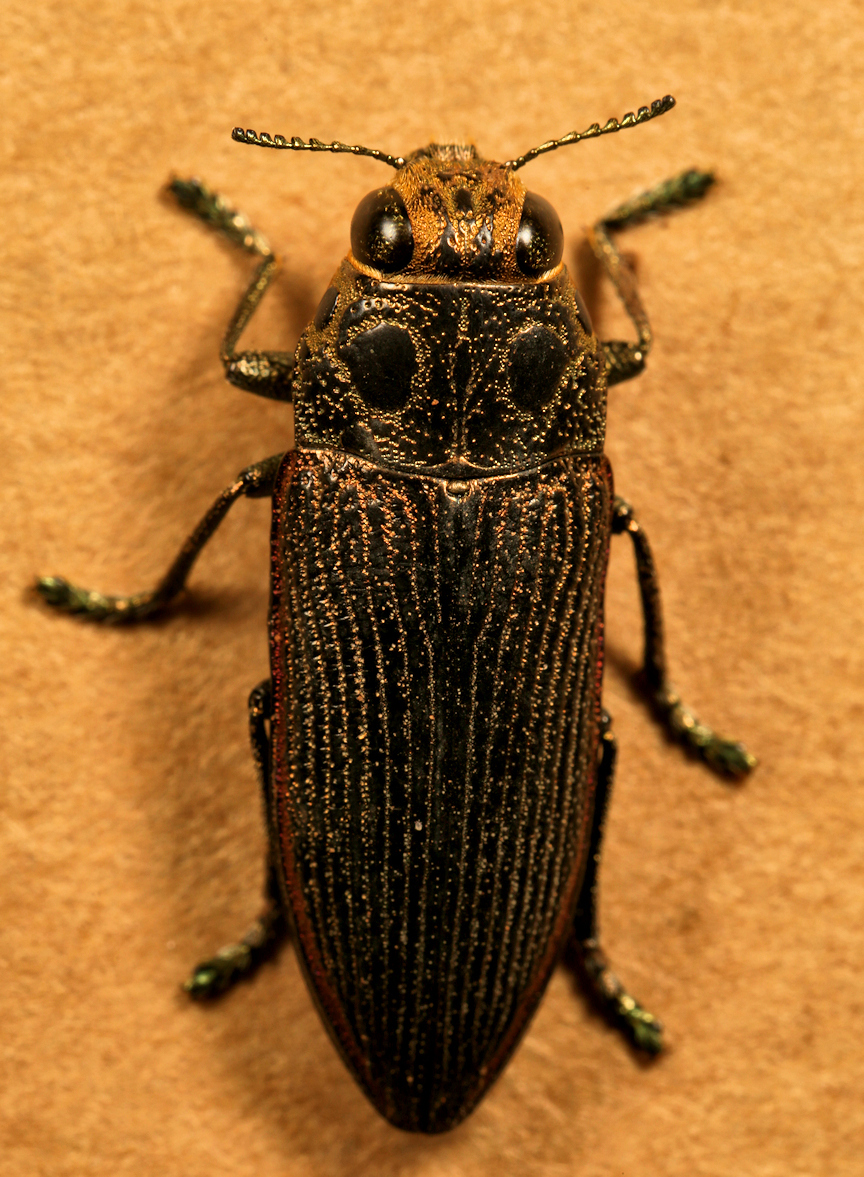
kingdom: Animalia
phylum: Arthropoda
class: Insecta
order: Coleoptera
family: Buprestidae
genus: Lampetis
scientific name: Lampetis quadrioculata
